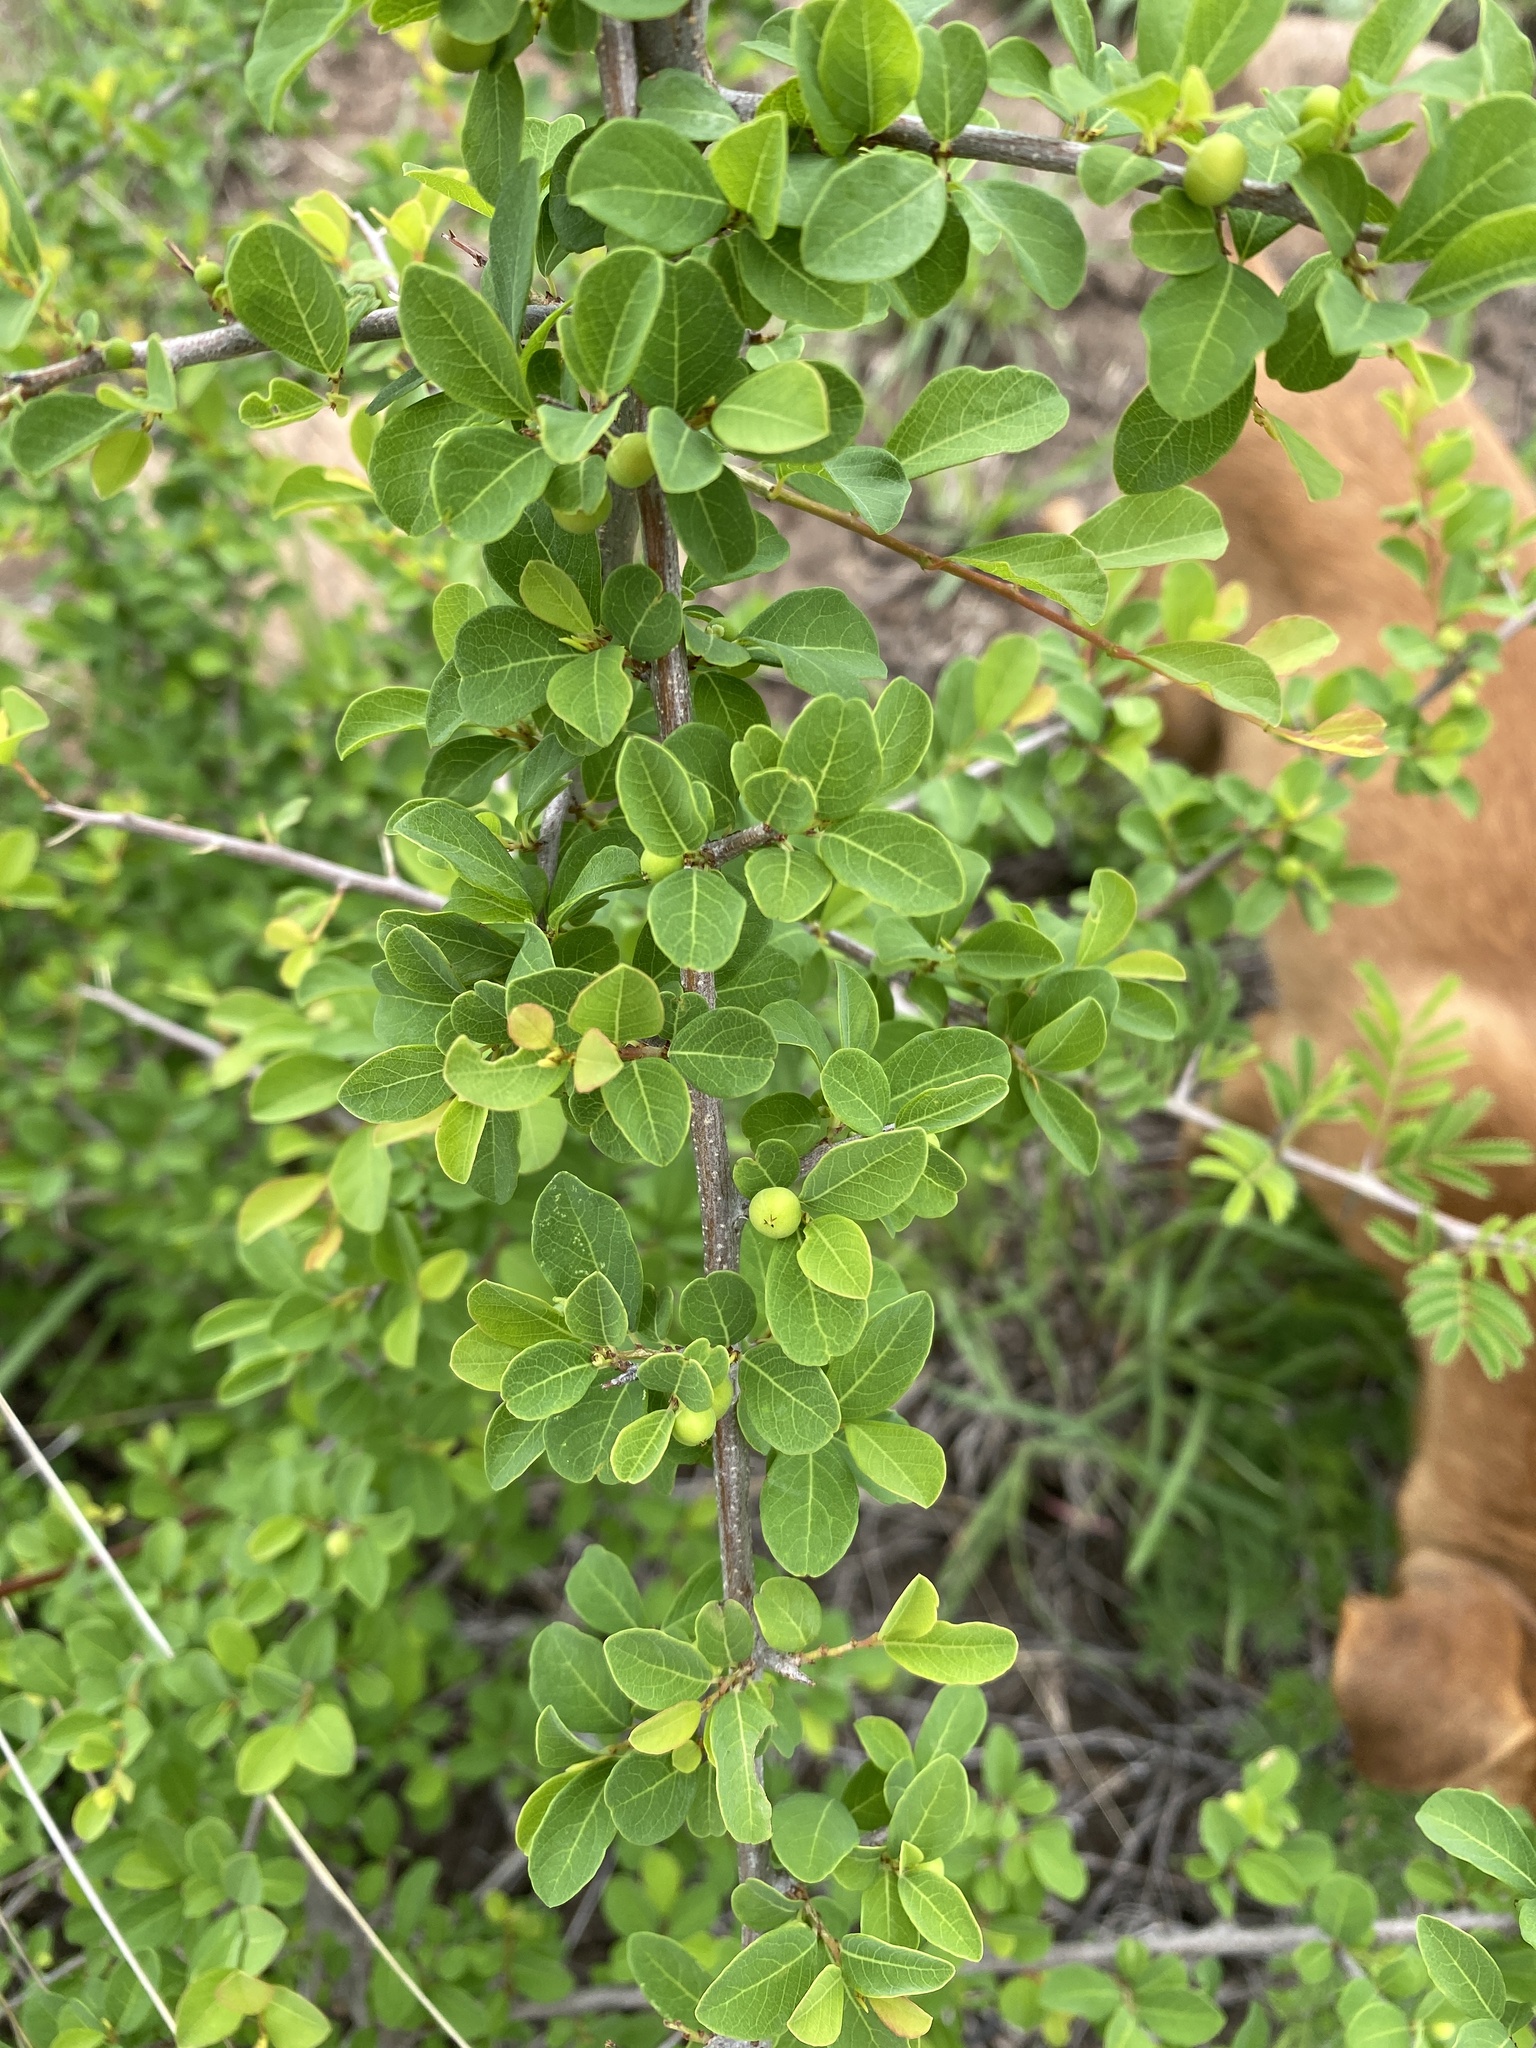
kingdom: Plantae
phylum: Tracheophyta
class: Magnoliopsida
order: Malpighiales
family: Phyllanthaceae
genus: Flueggea
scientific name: Flueggea virosa
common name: Common bushweed
